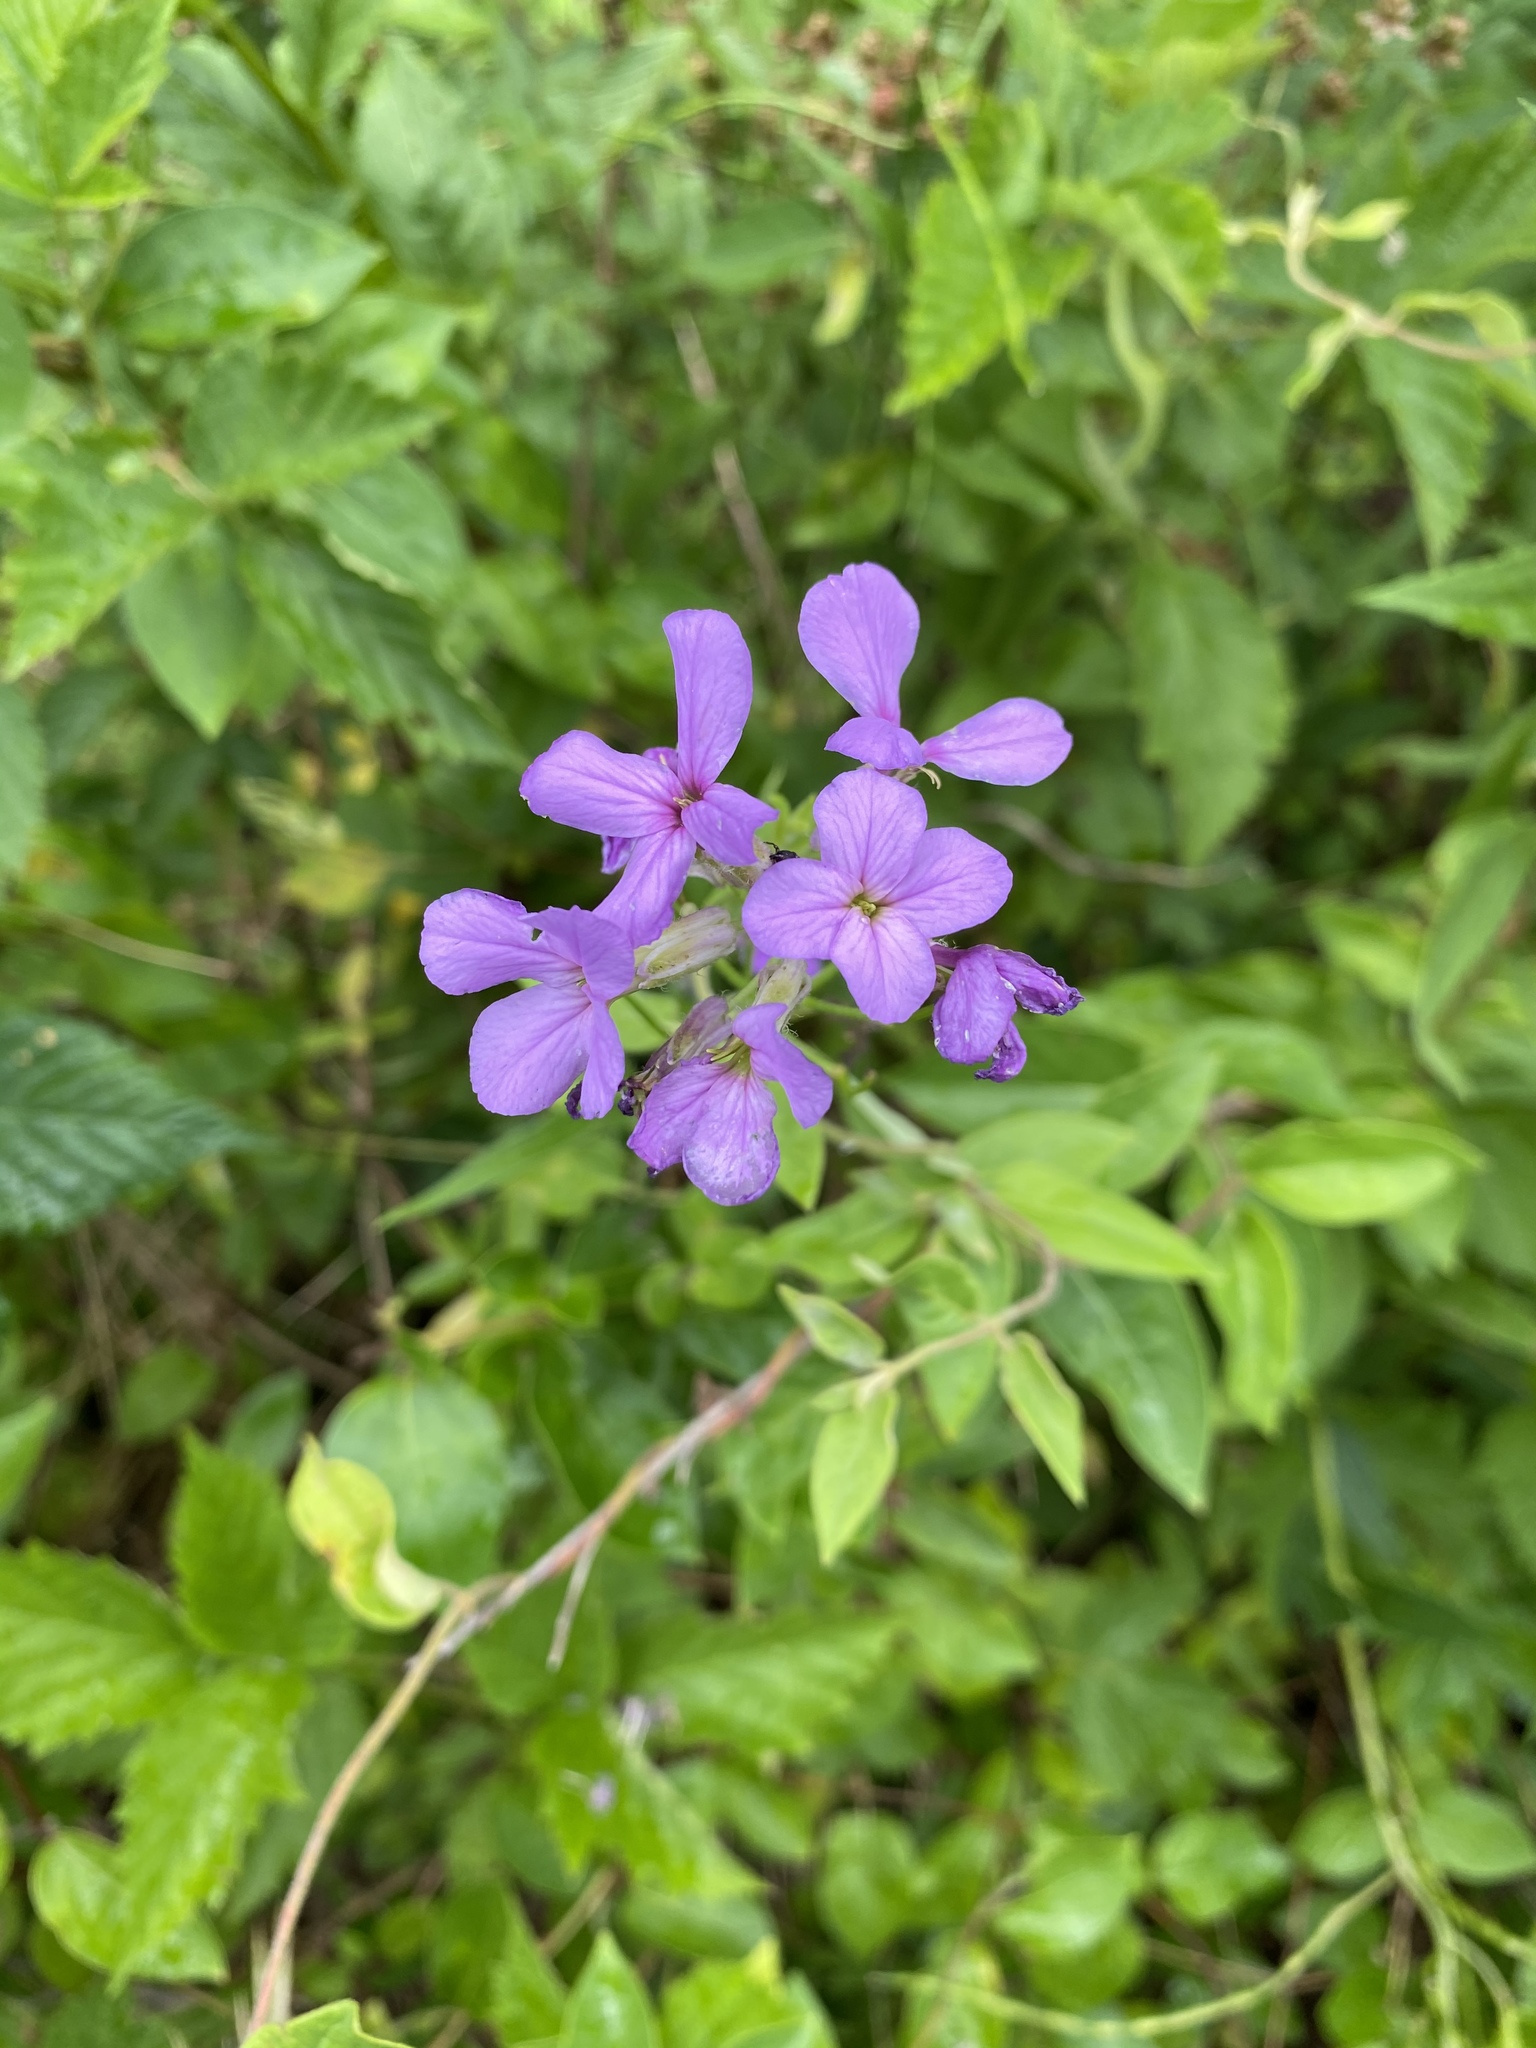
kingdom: Plantae
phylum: Tracheophyta
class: Magnoliopsida
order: Brassicales
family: Brassicaceae
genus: Hesperis
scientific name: Hesperis matronalis
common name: Dame's-violet
